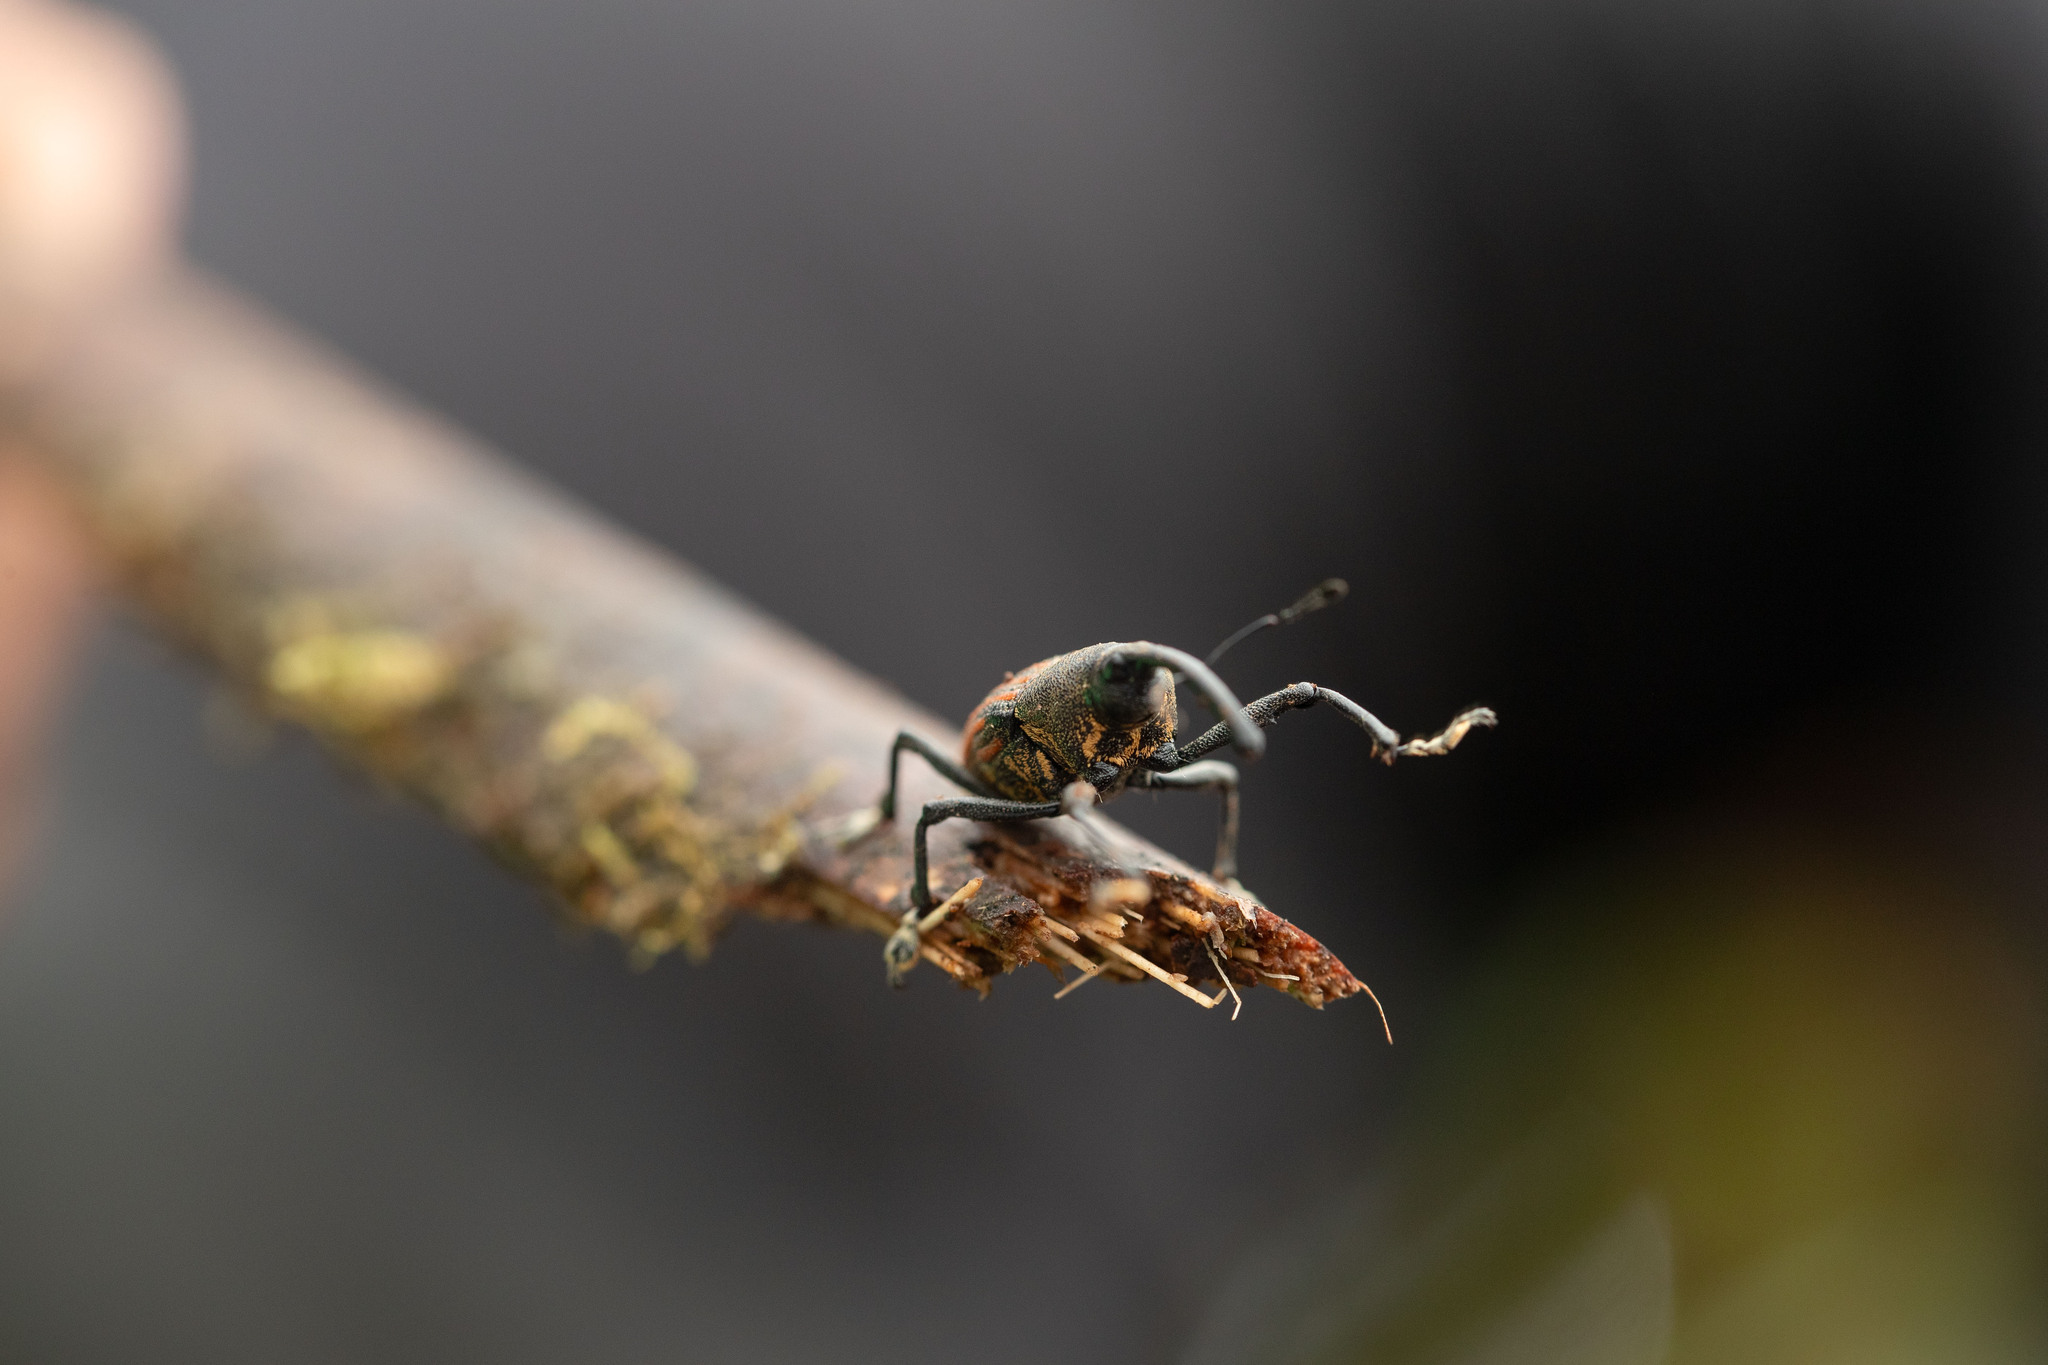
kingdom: Animalia
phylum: Arthropoda
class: Insecta
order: Coleoptera
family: Curculionidae
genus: Cholus
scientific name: Cholus sanguineo-costatus
